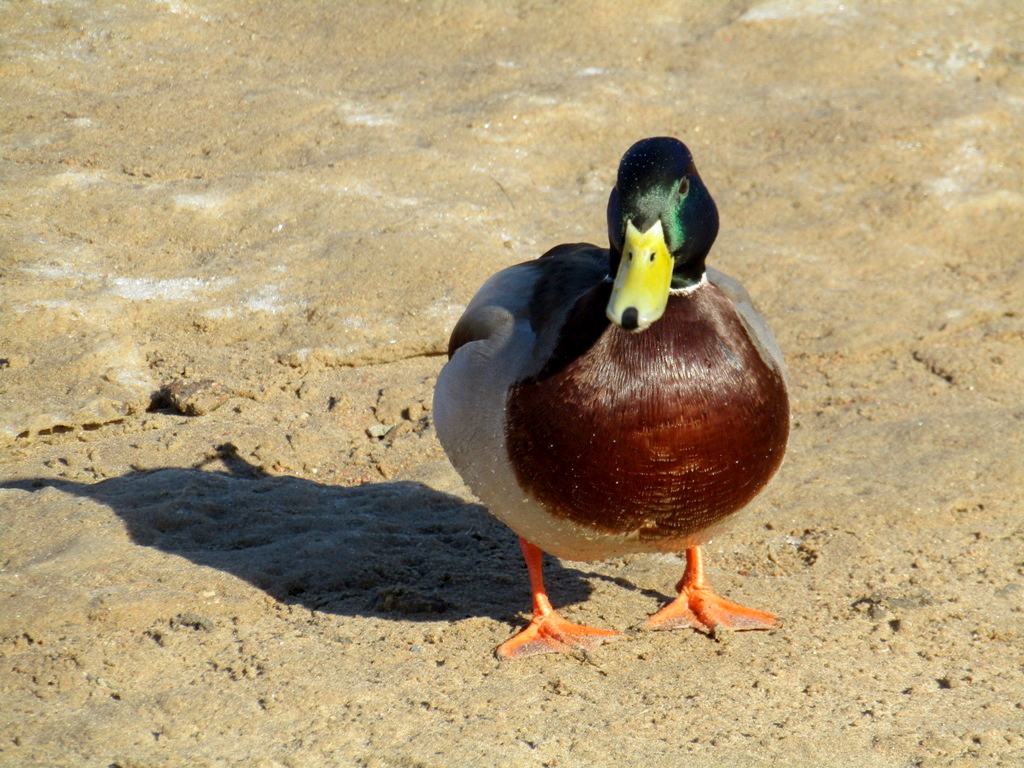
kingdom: Animalia
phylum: Chordata
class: Aves
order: Anseriformes
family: Anatidae
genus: Anas
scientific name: Anas platyrhynchos
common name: Mallard
